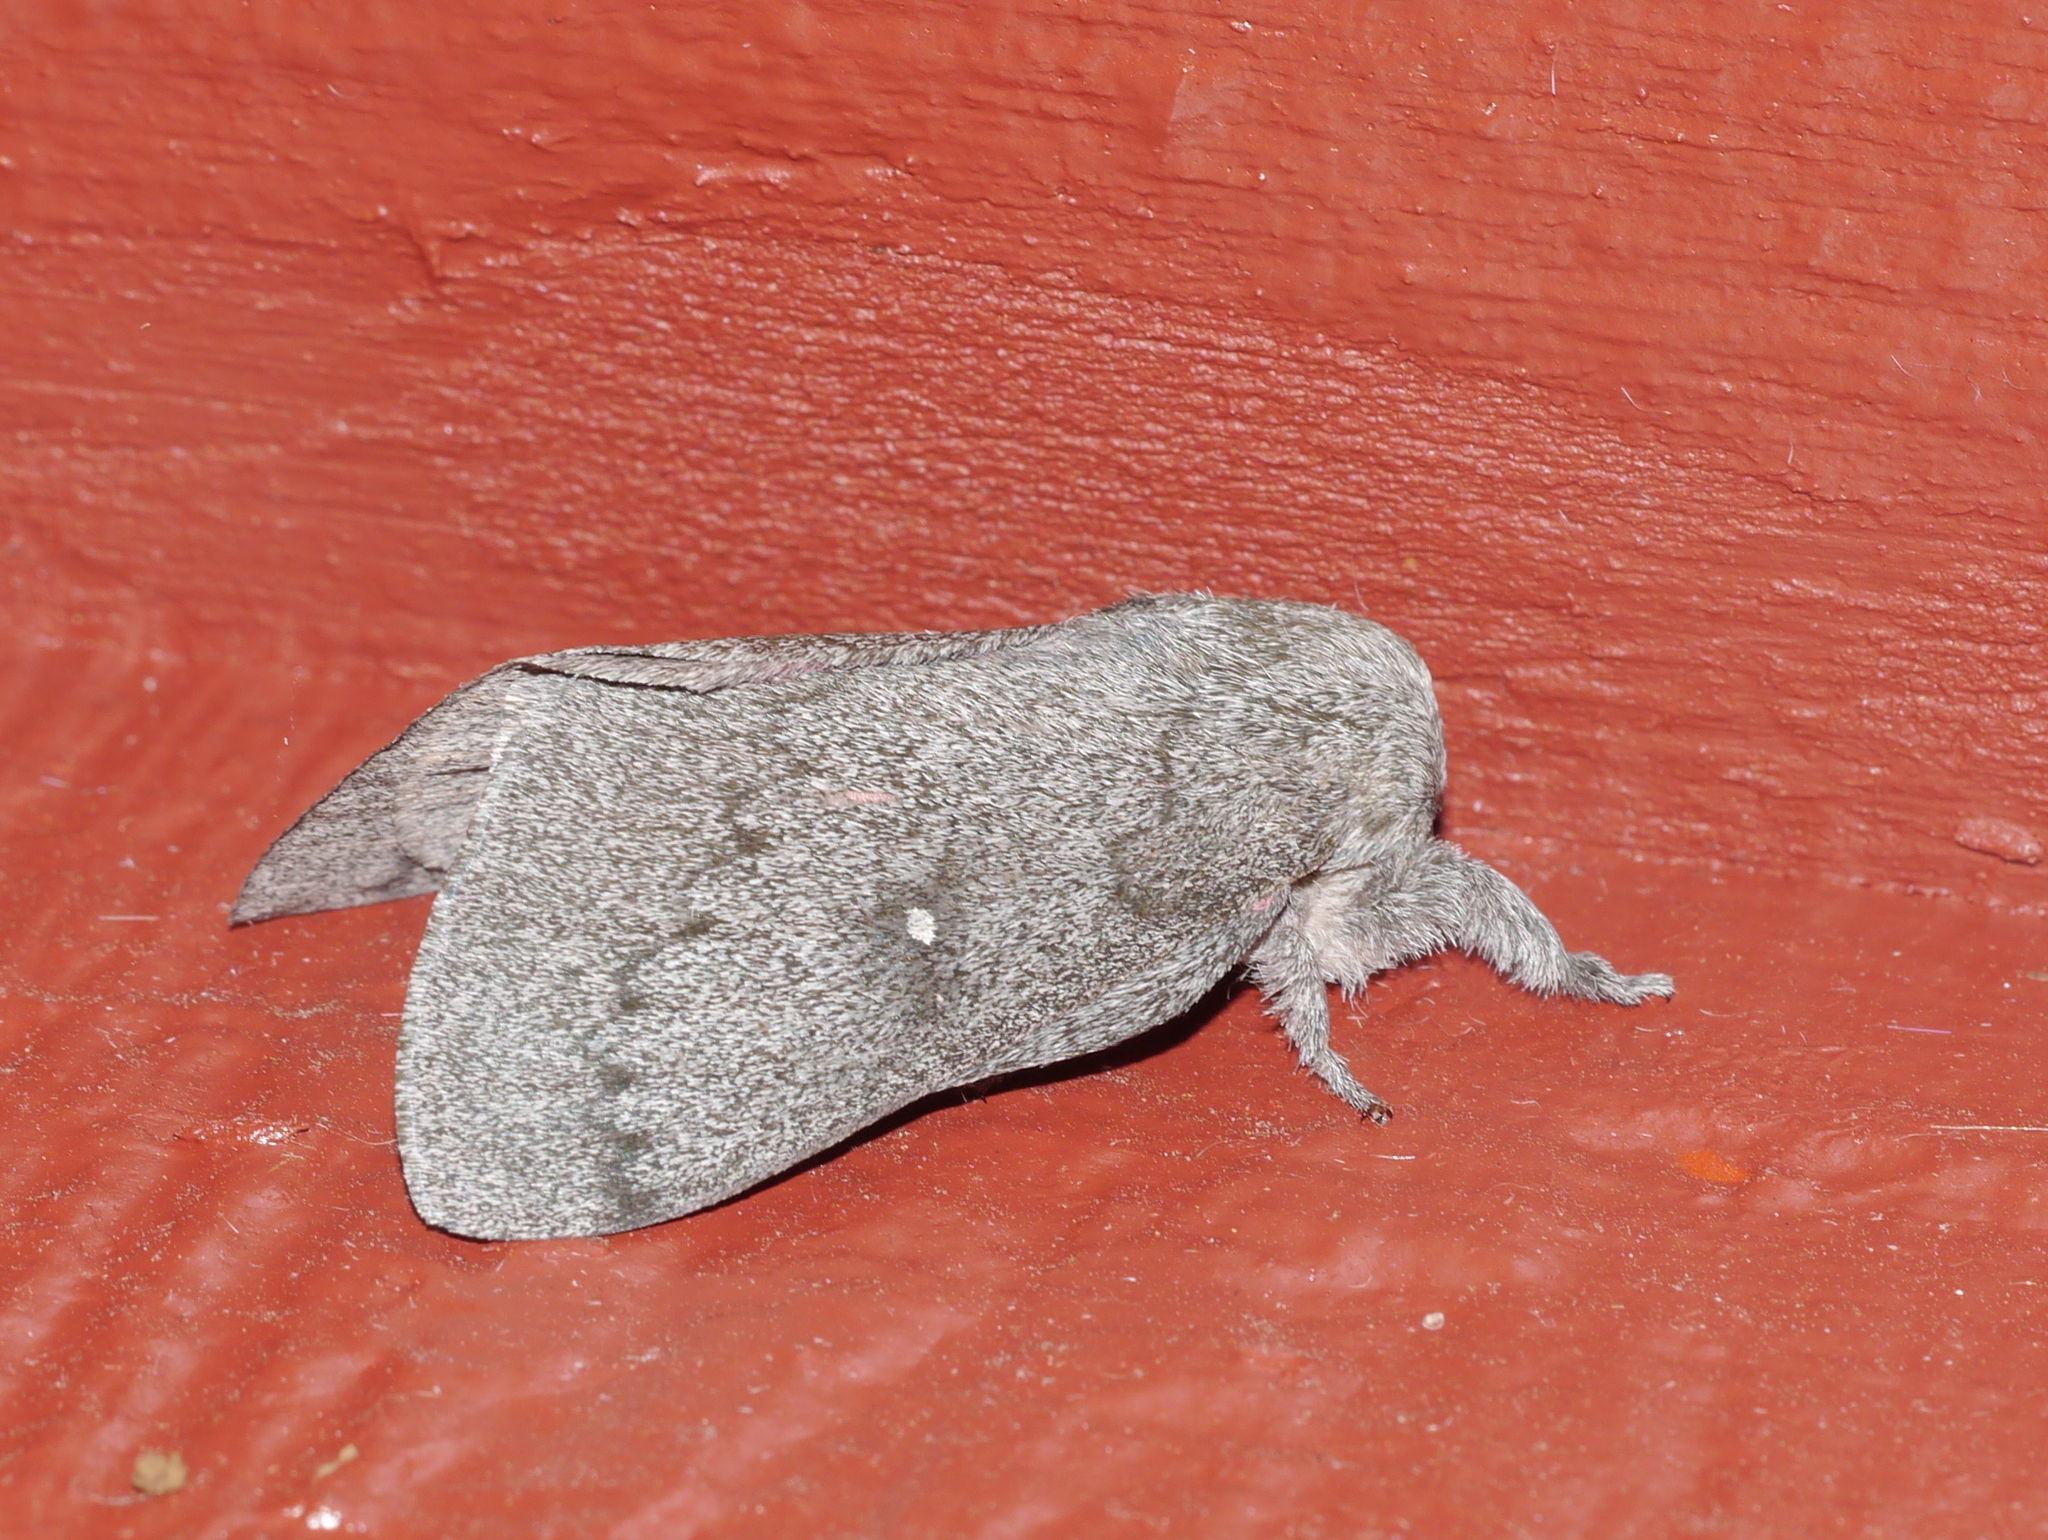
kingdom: Animalia
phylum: Arthropoda
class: Insecta
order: Lepidoptera
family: Saturniidae
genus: Syssphinx
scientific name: Syssphinx hubbardi
